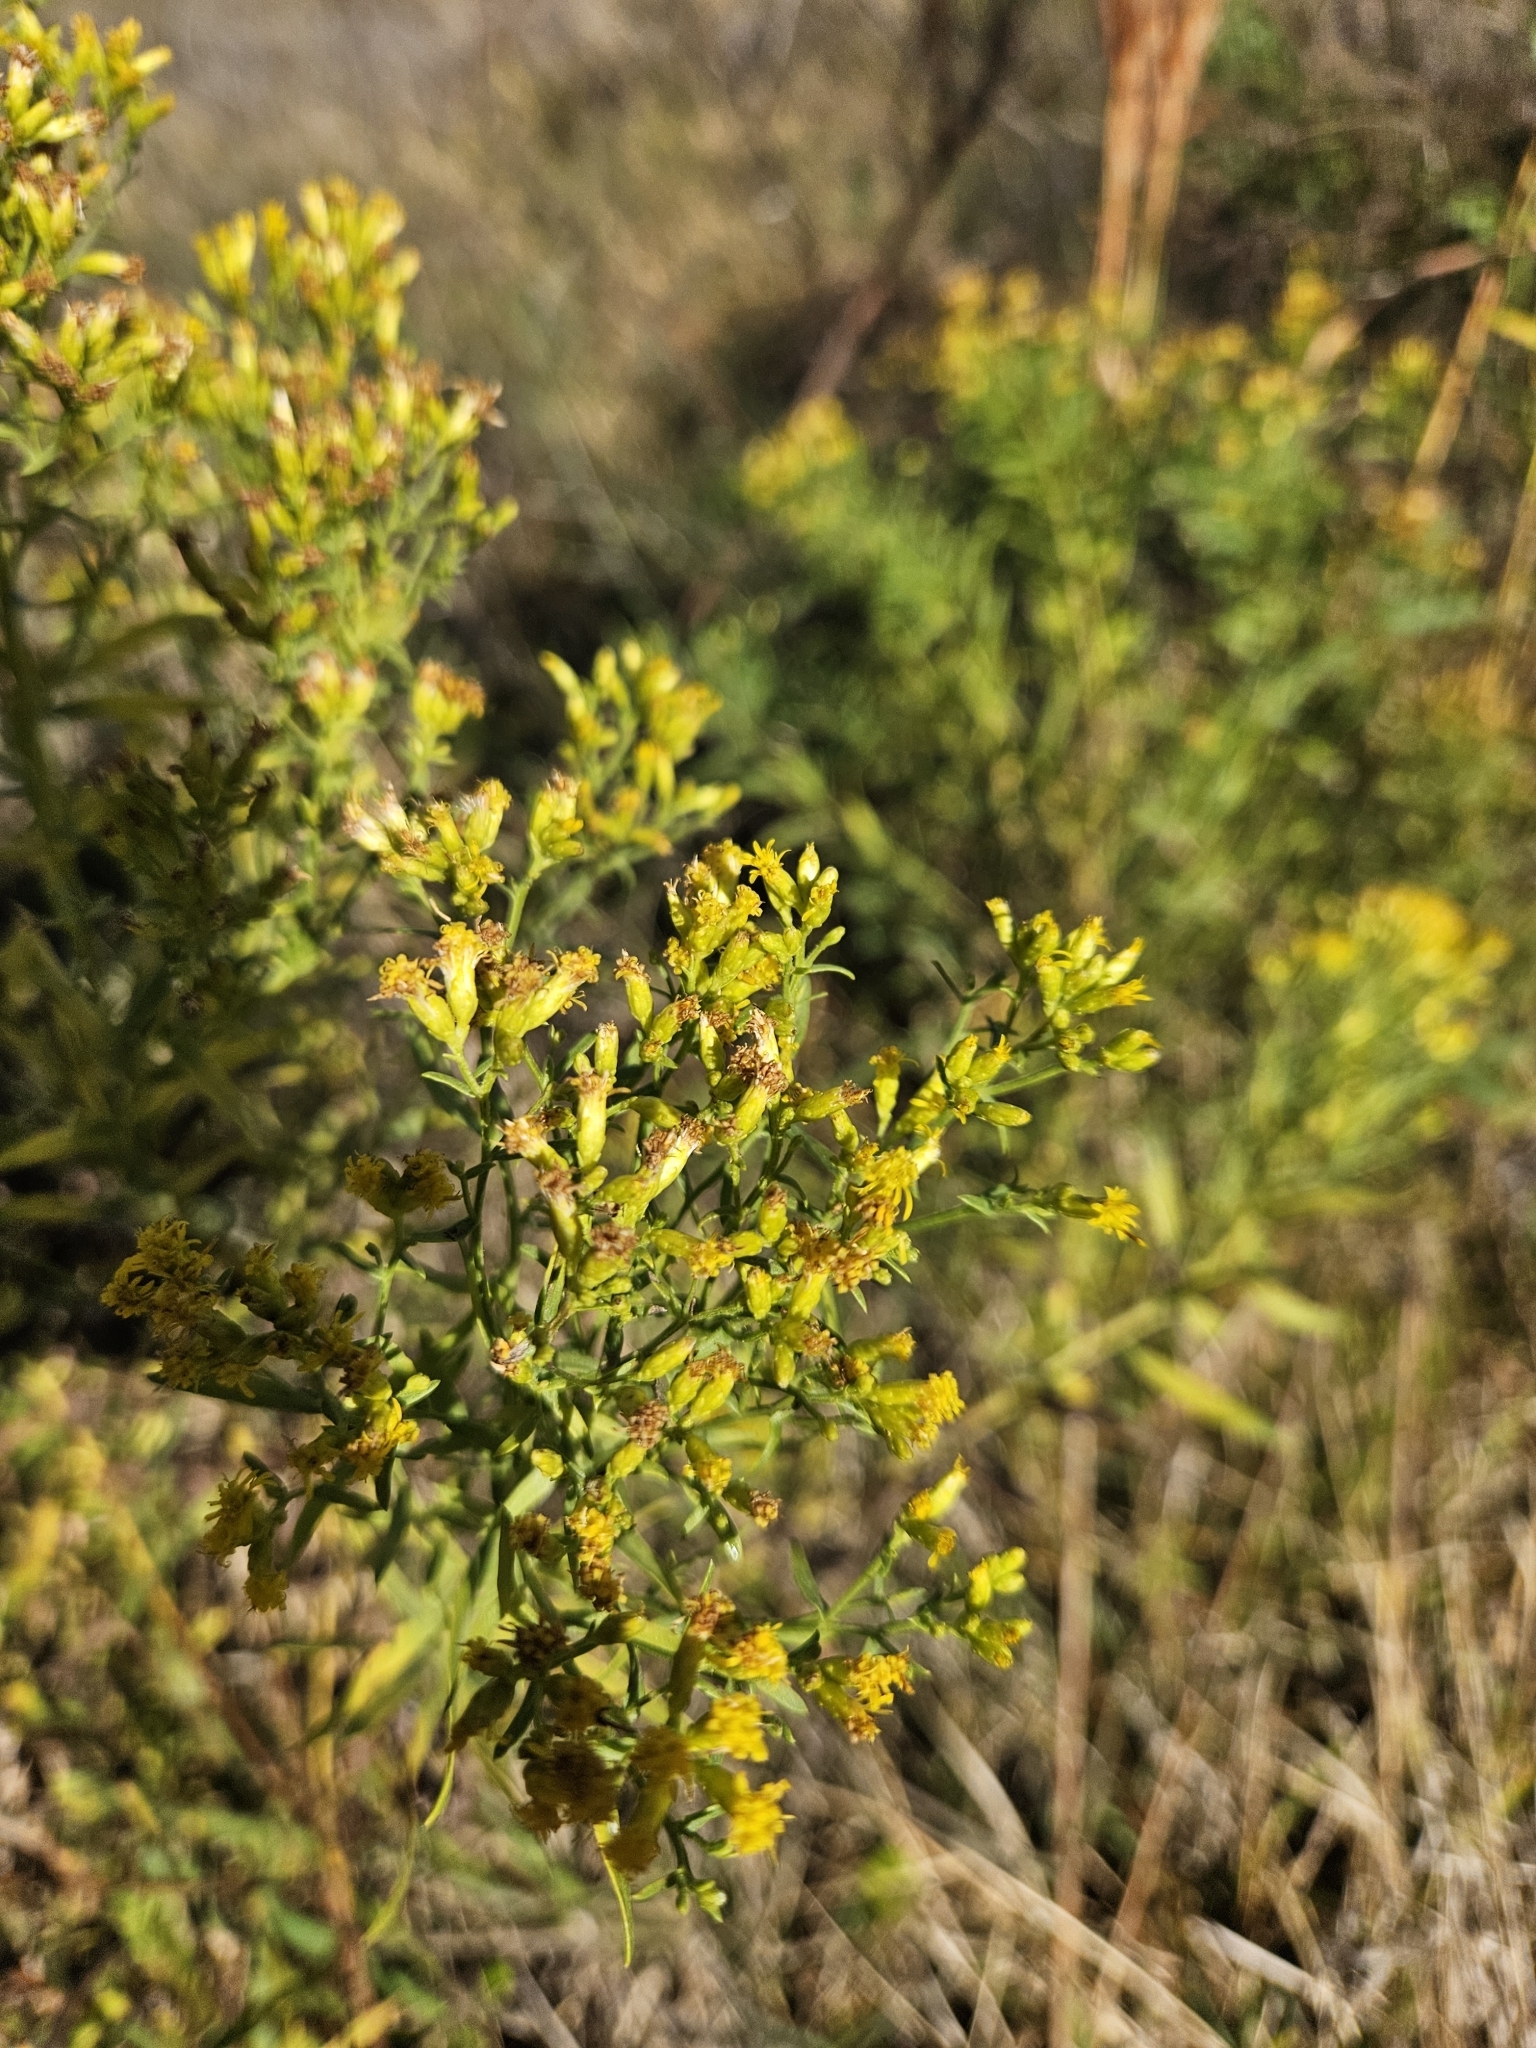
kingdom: Plantae
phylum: Tracheophyta
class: Magnoliopsida
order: Asterales
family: Asteraceae
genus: Euthamia
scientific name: Euthamia leptocephala
